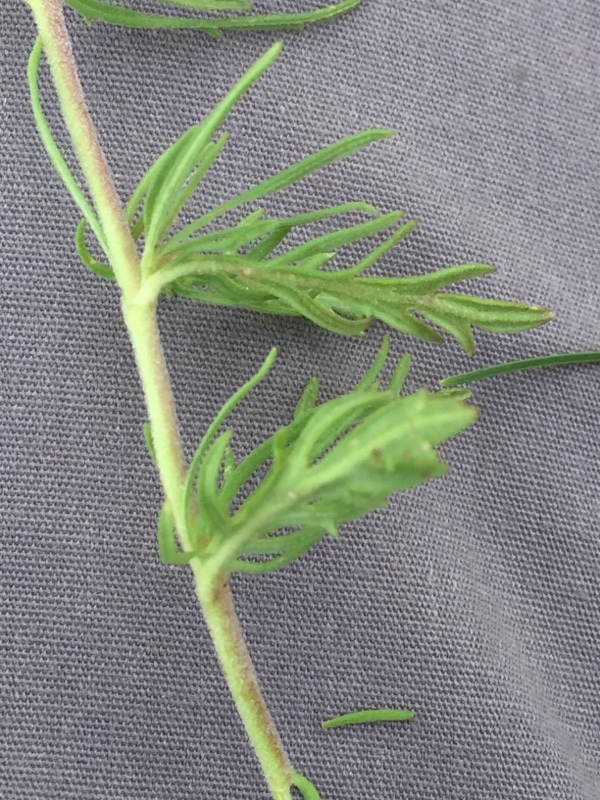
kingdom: Plantae
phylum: Tracheophyta
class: Magnoliopsida
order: Lamiales
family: Plantaginaceae
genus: Veronica
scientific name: Veronica multifida
